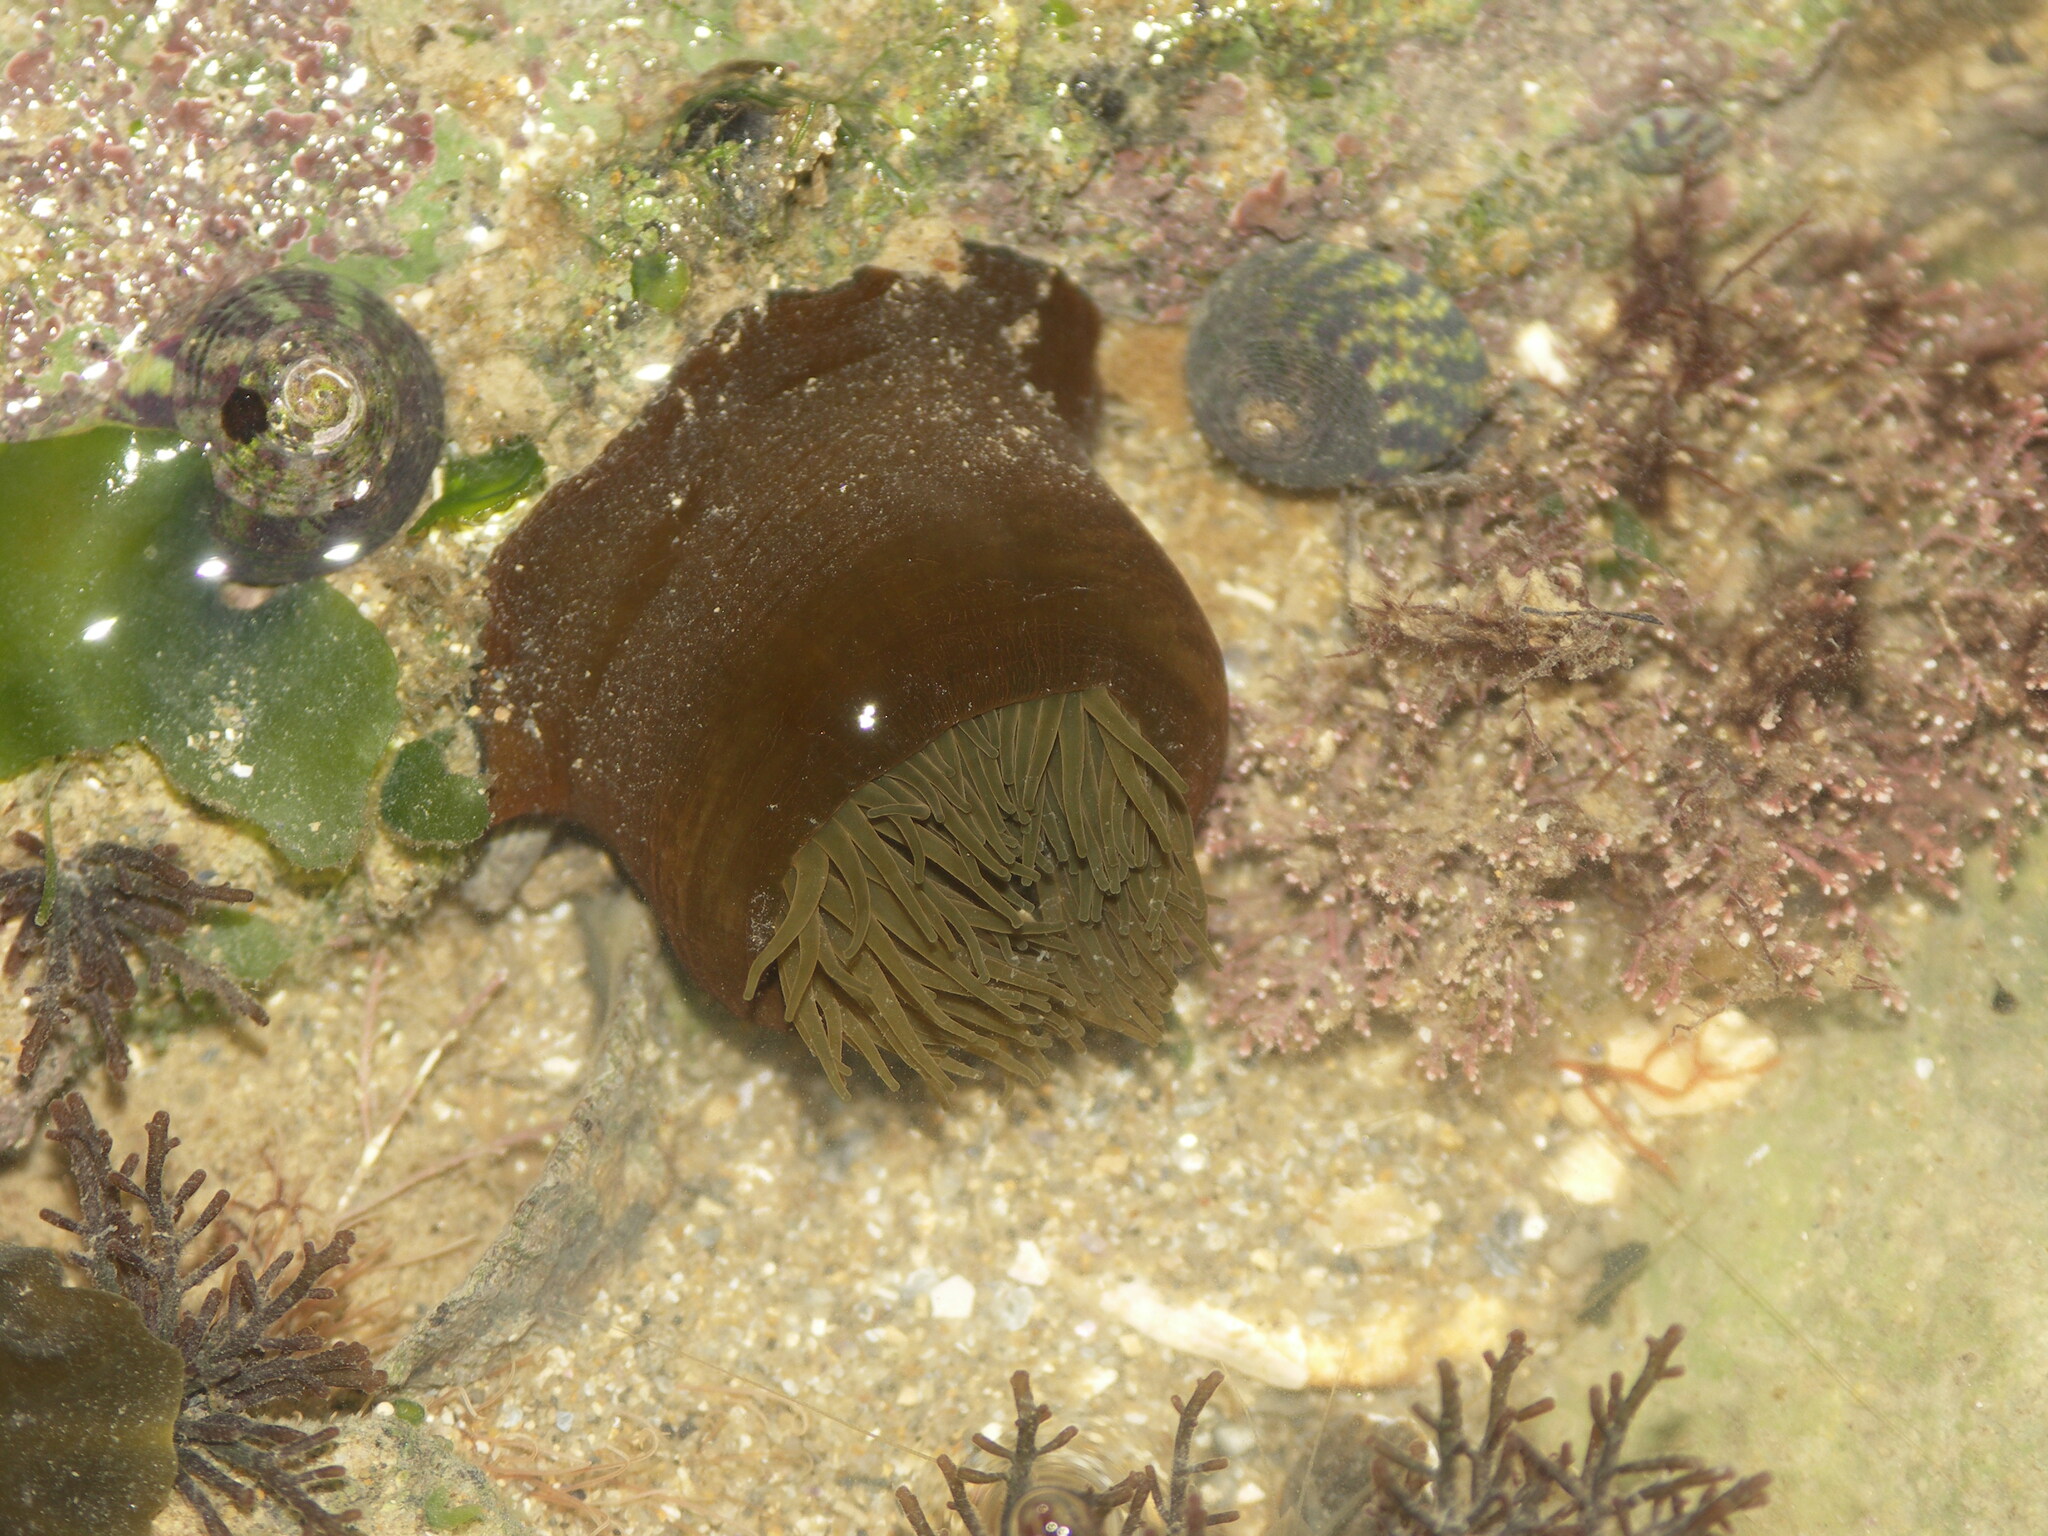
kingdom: Animalia
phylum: Cnidaria
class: Anthozoa
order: Actiniaria
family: Actiniidae
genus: Actinia
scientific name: Actinia equina
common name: Beadlet anemone
